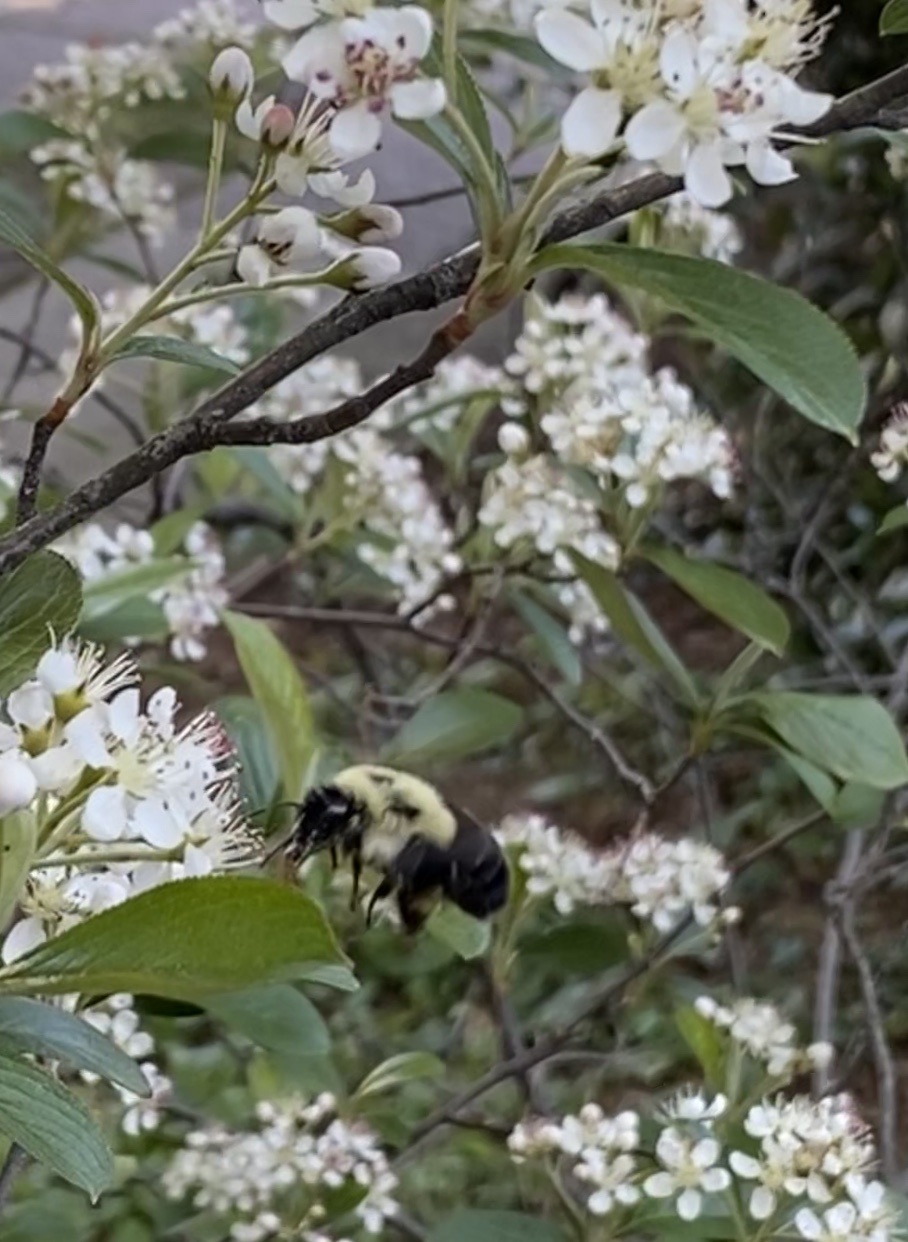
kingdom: Animalia
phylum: Arthropoda
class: Insecta
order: Hymenoptera
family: Apidae
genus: Bombus
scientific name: Bombus impatiens
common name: Common eastern bumble bee
